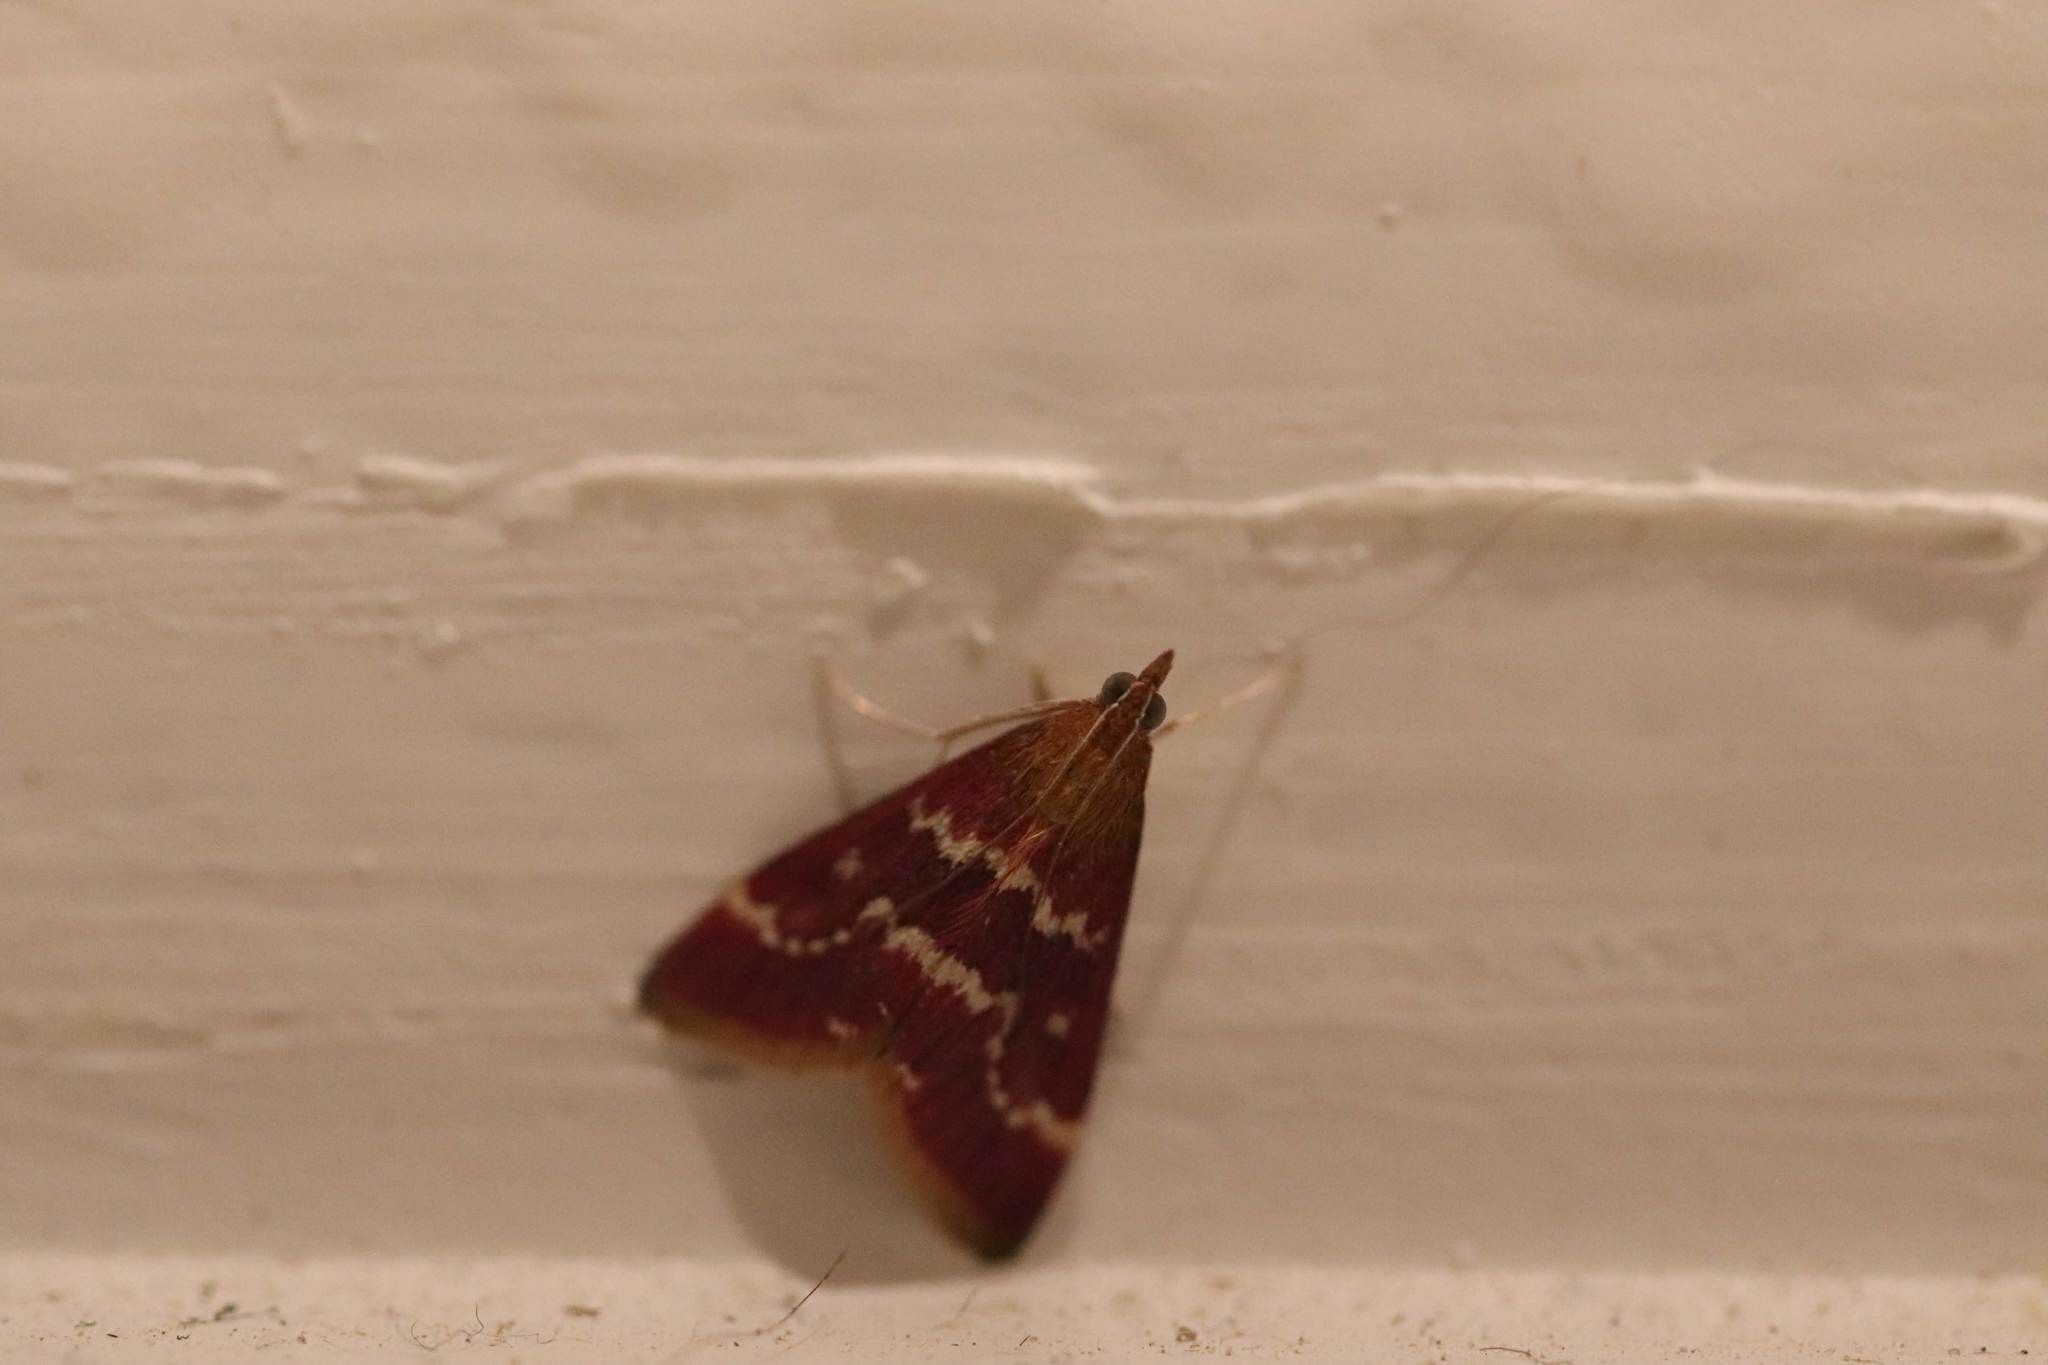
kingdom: Animalia
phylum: Arthropoda
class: Insecta
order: Lepidoptera
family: Crambidae
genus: Pyrausta
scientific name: Pyrausta signatalis
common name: Raspberry pyrausta moth
